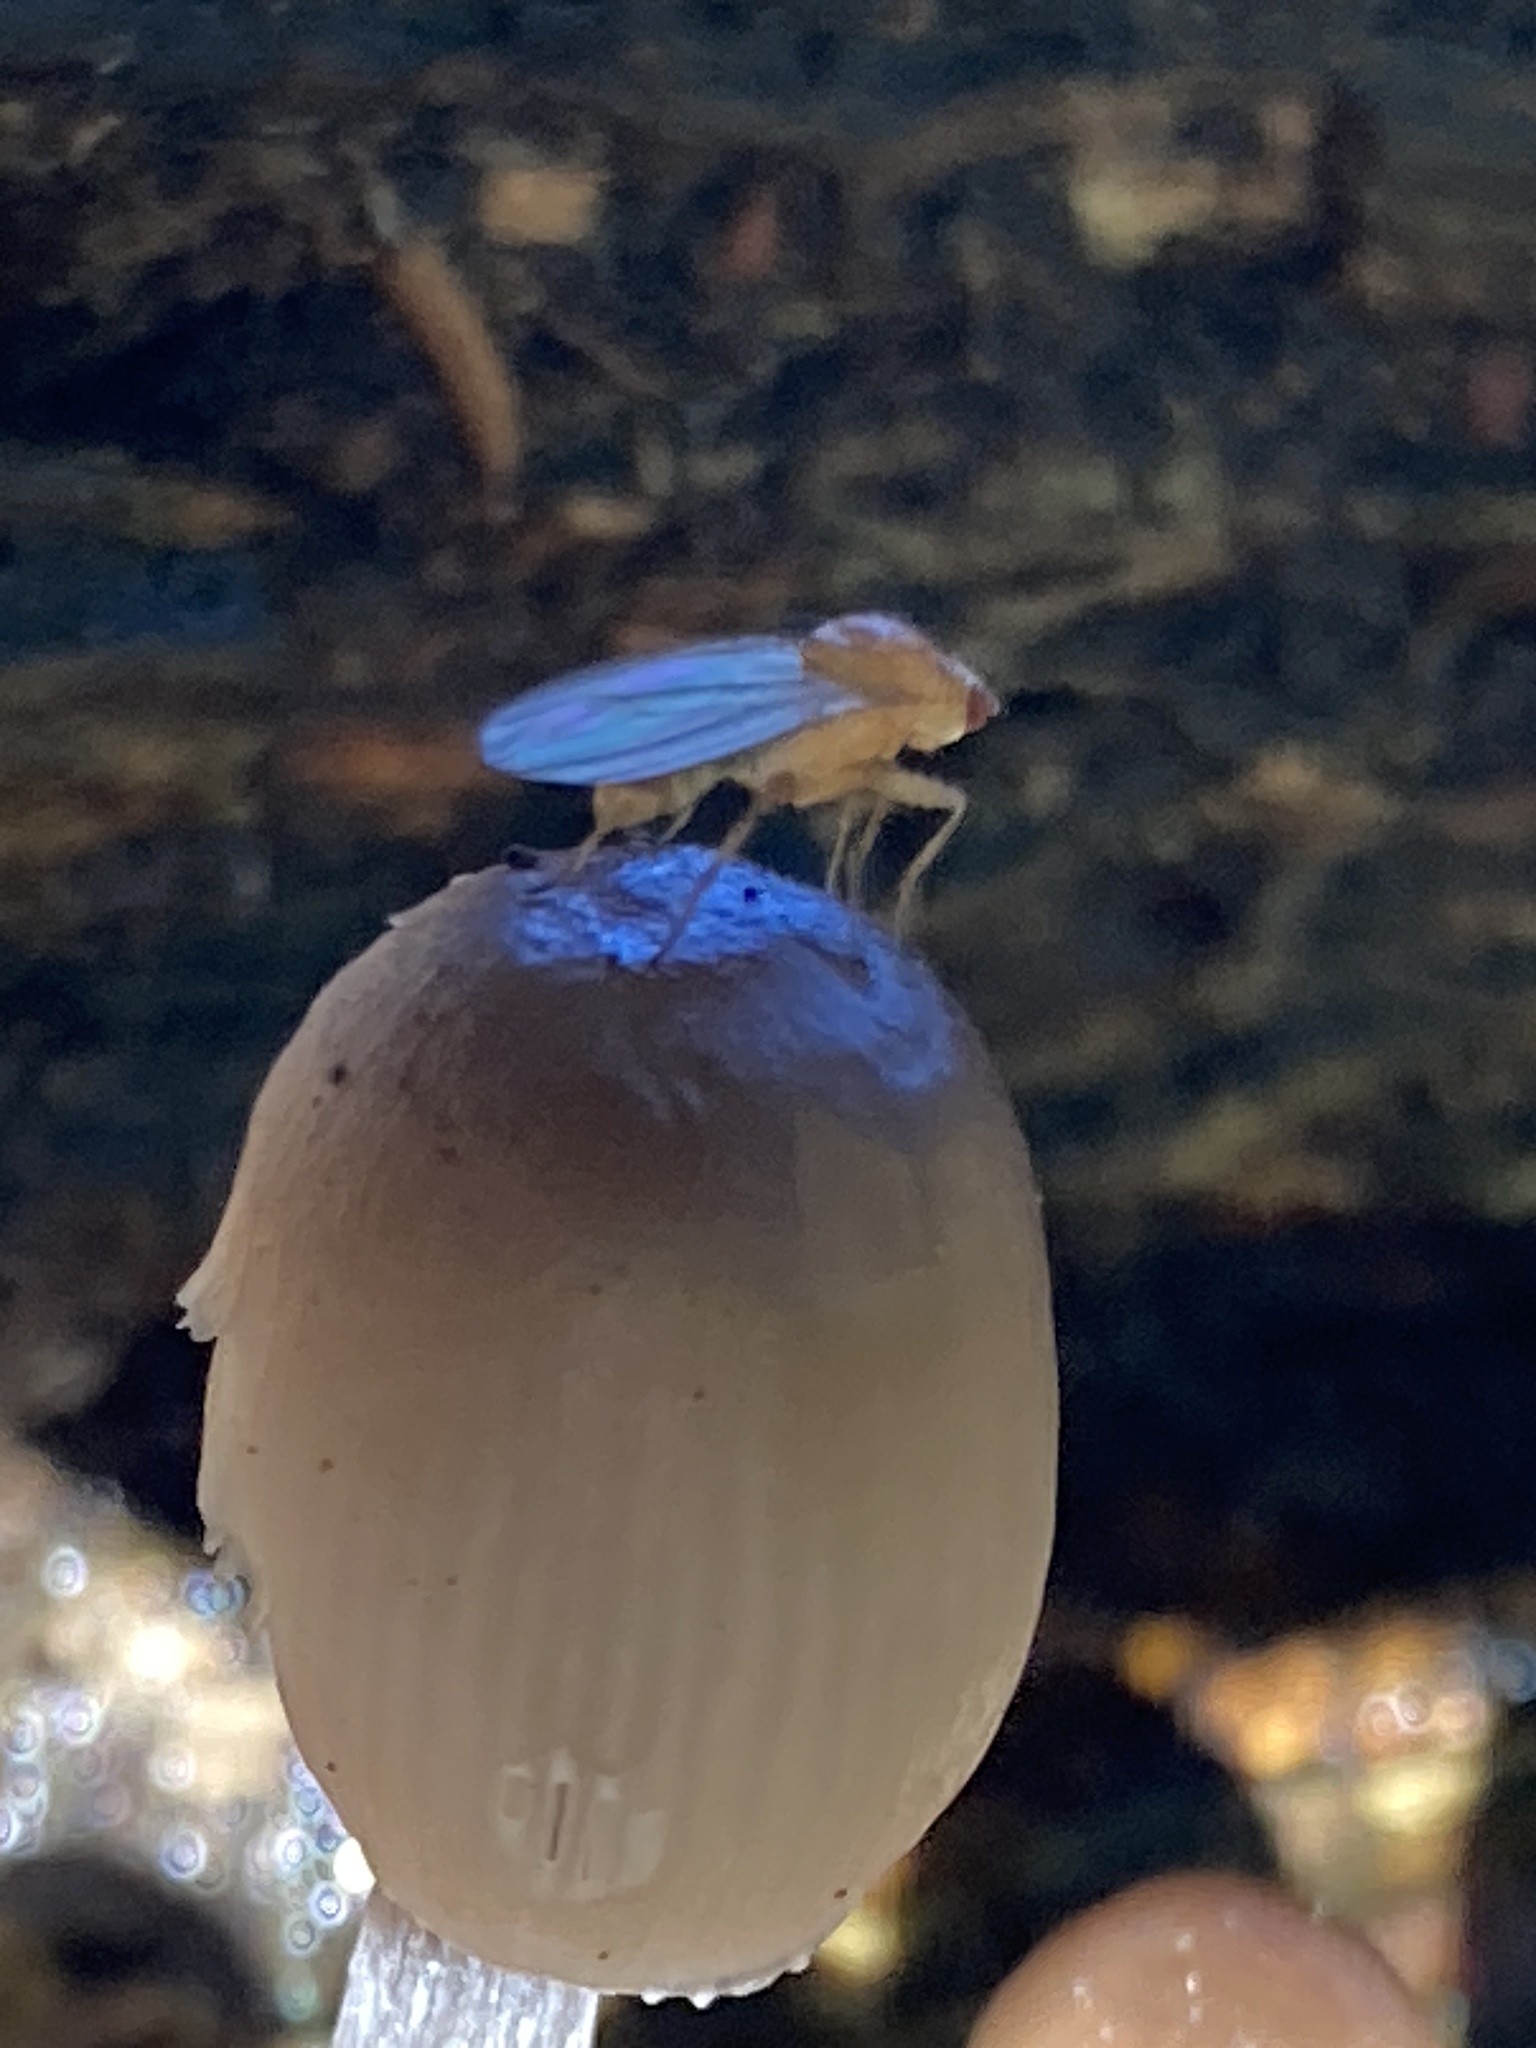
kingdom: Animalia
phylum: Arthropoda
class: Insecta
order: Diptera
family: Heleomyzidae
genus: Allophyla
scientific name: Allophyla atricornis
